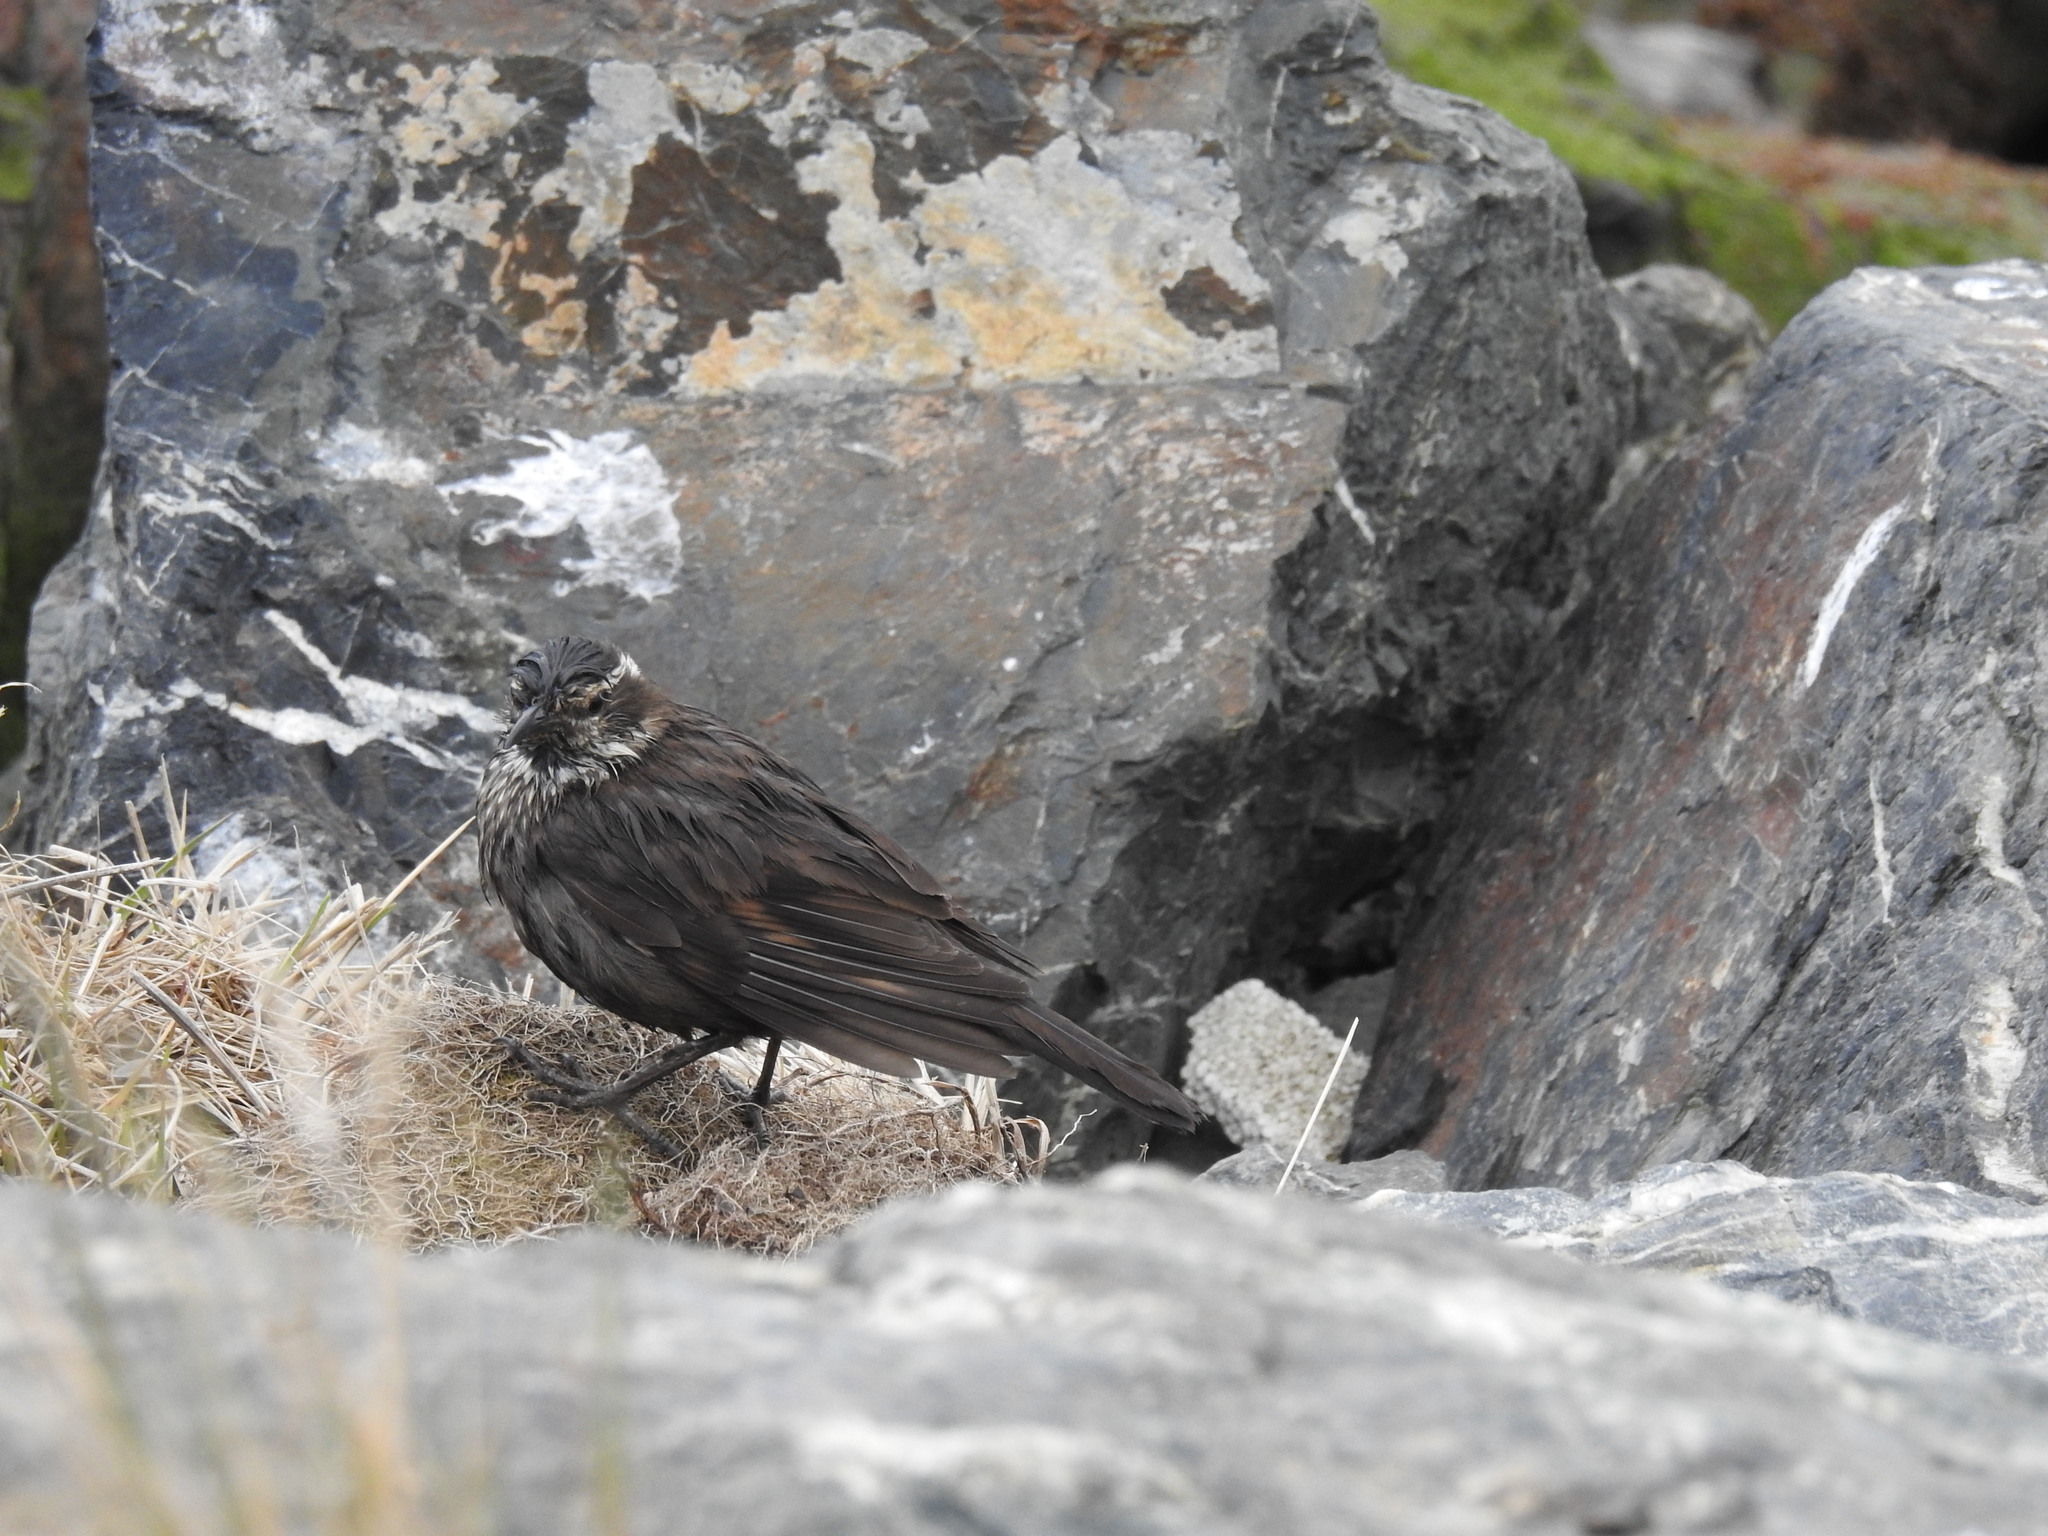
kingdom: Animalia
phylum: Chordata
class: Aves
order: Passeriformes
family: Furnariidae
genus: Cinclodes
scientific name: Cinclodes patagonicus
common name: Dark-bellied cinclodes
